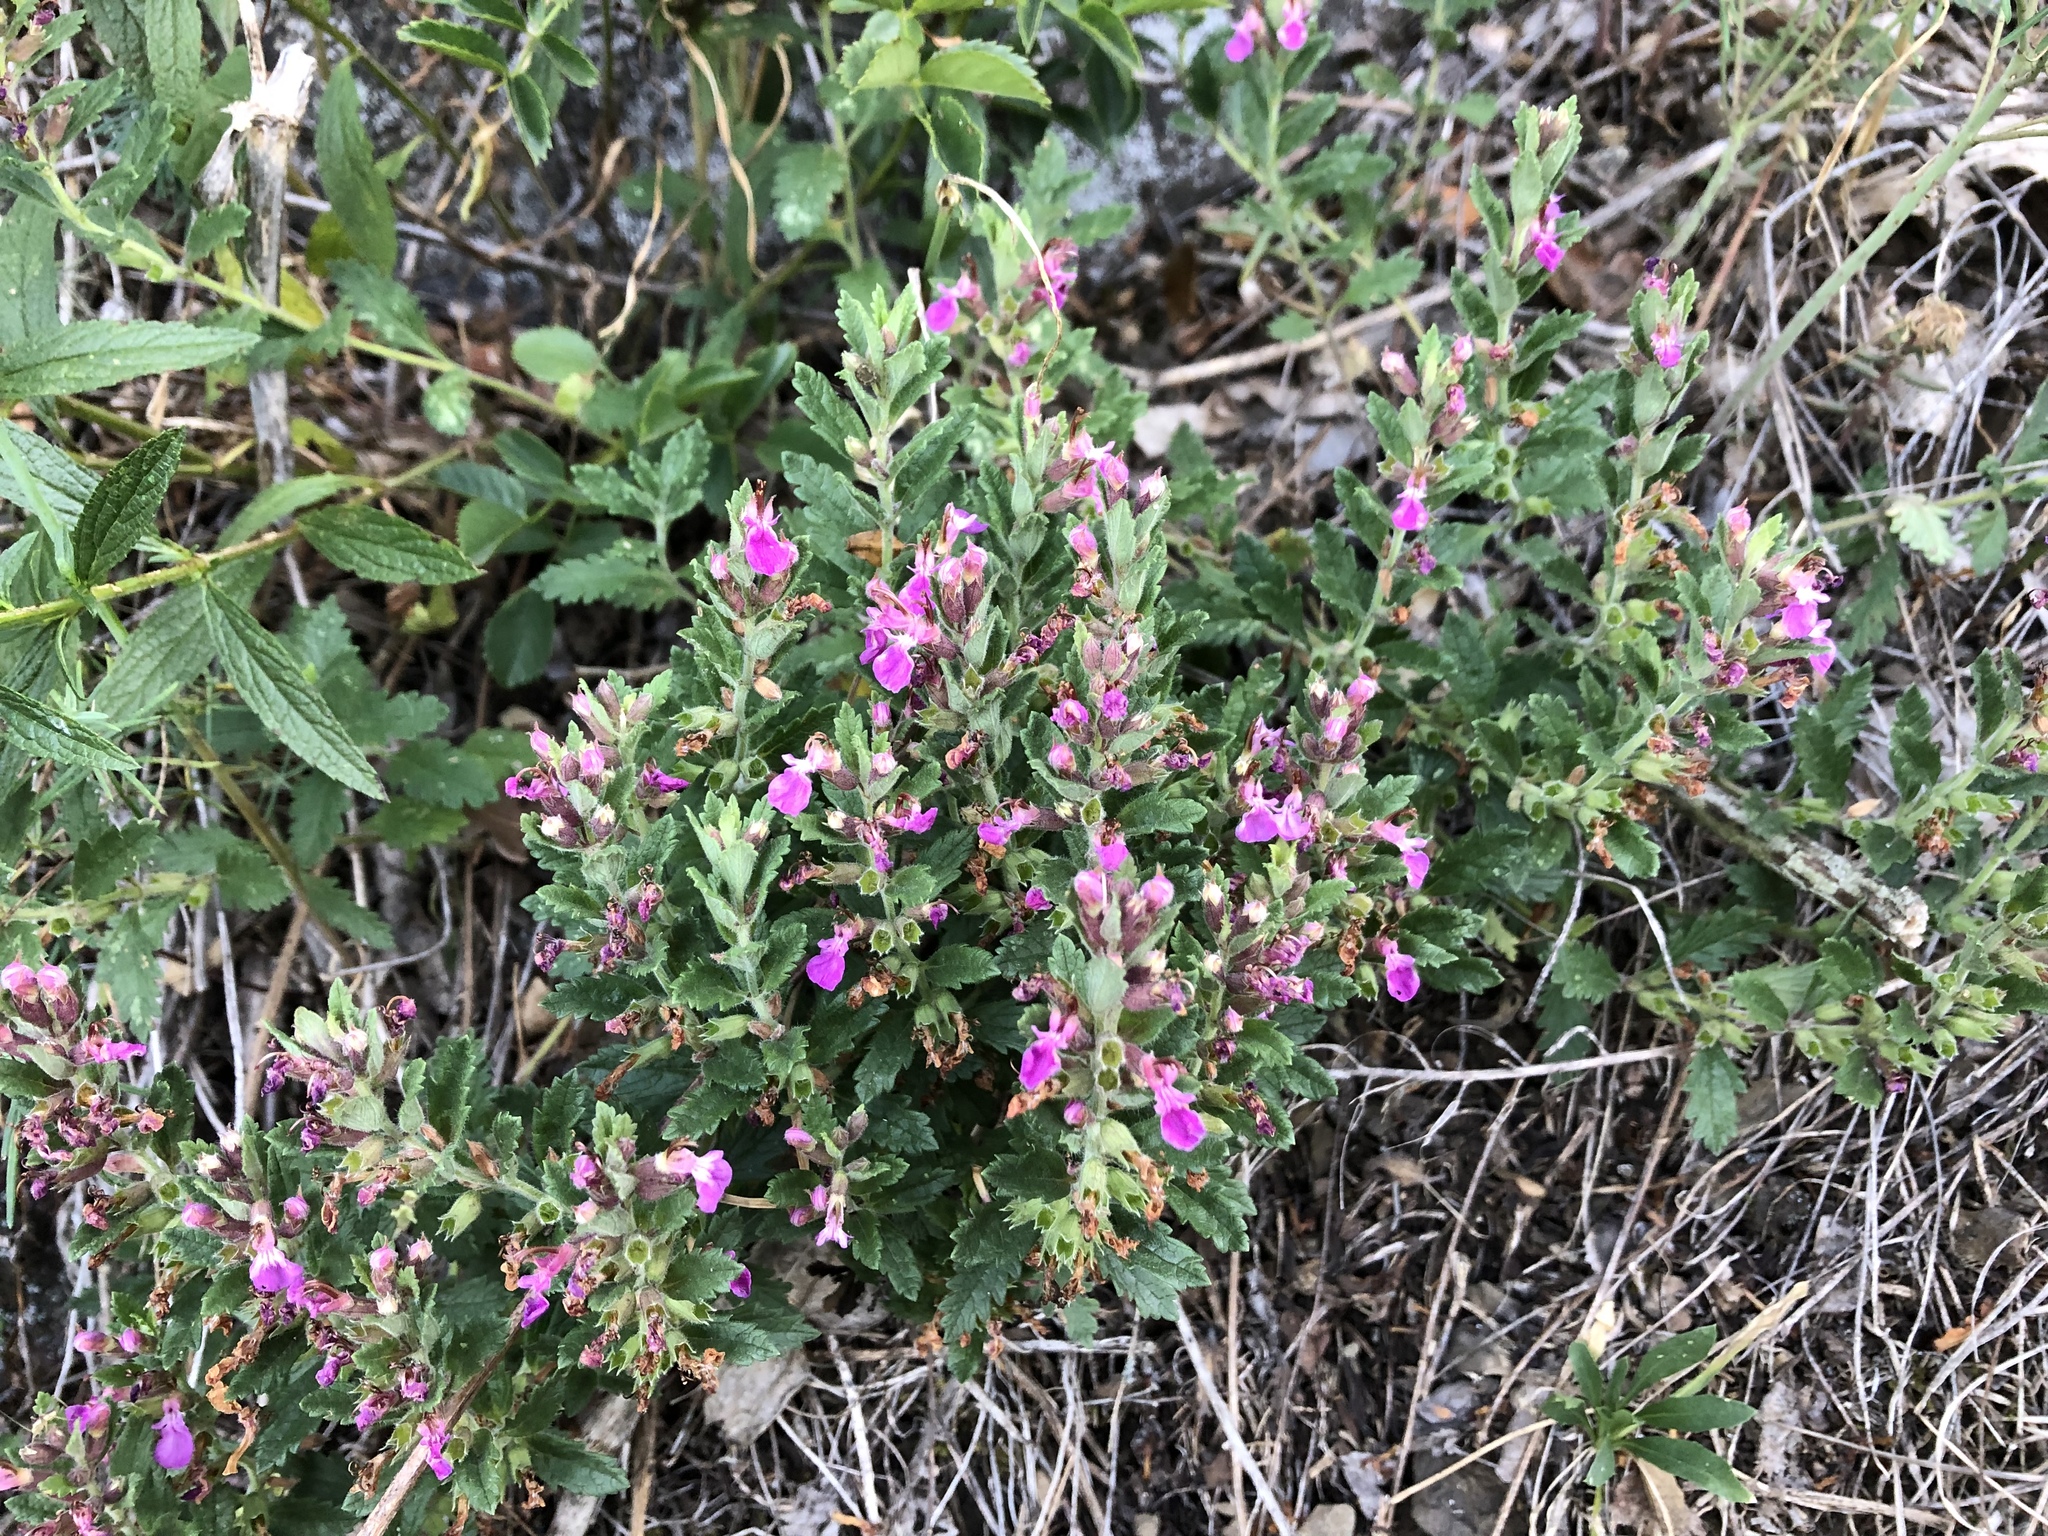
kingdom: Plantae
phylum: Tracheophyta
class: Magnoliopsida
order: Lamiales
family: Lamiaceae
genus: Teucrium
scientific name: Teucrium chamaedrys
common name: Wall germander
